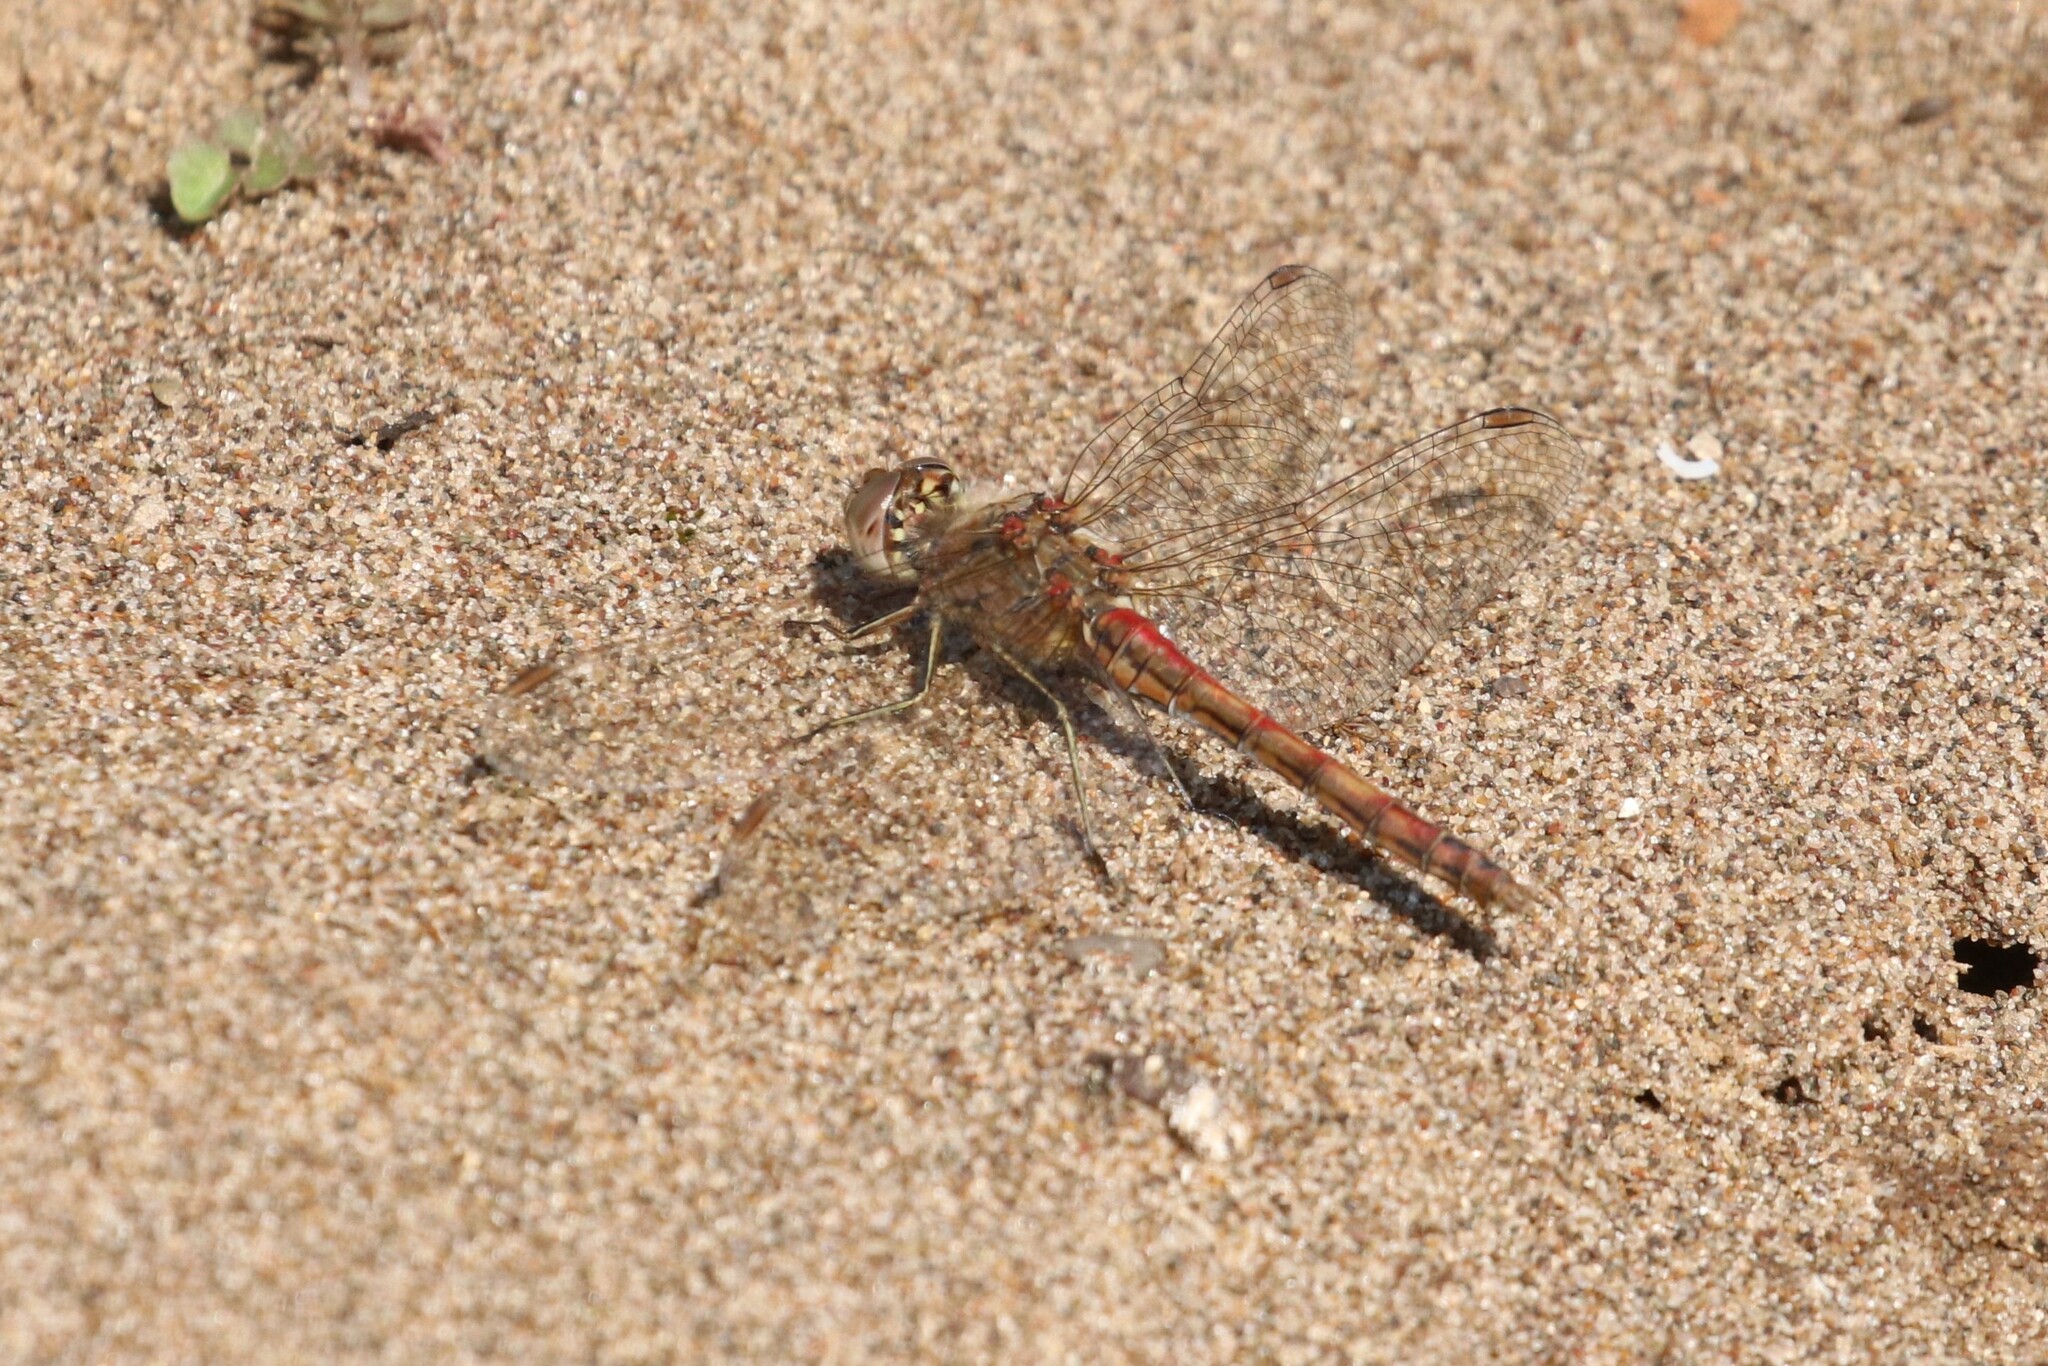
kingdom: Animalia
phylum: Arthropoda
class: Insecta
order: Odonata
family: Libellulidae
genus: Sympetrum
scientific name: Sympetrum vulgatum
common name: Vagrant darter
